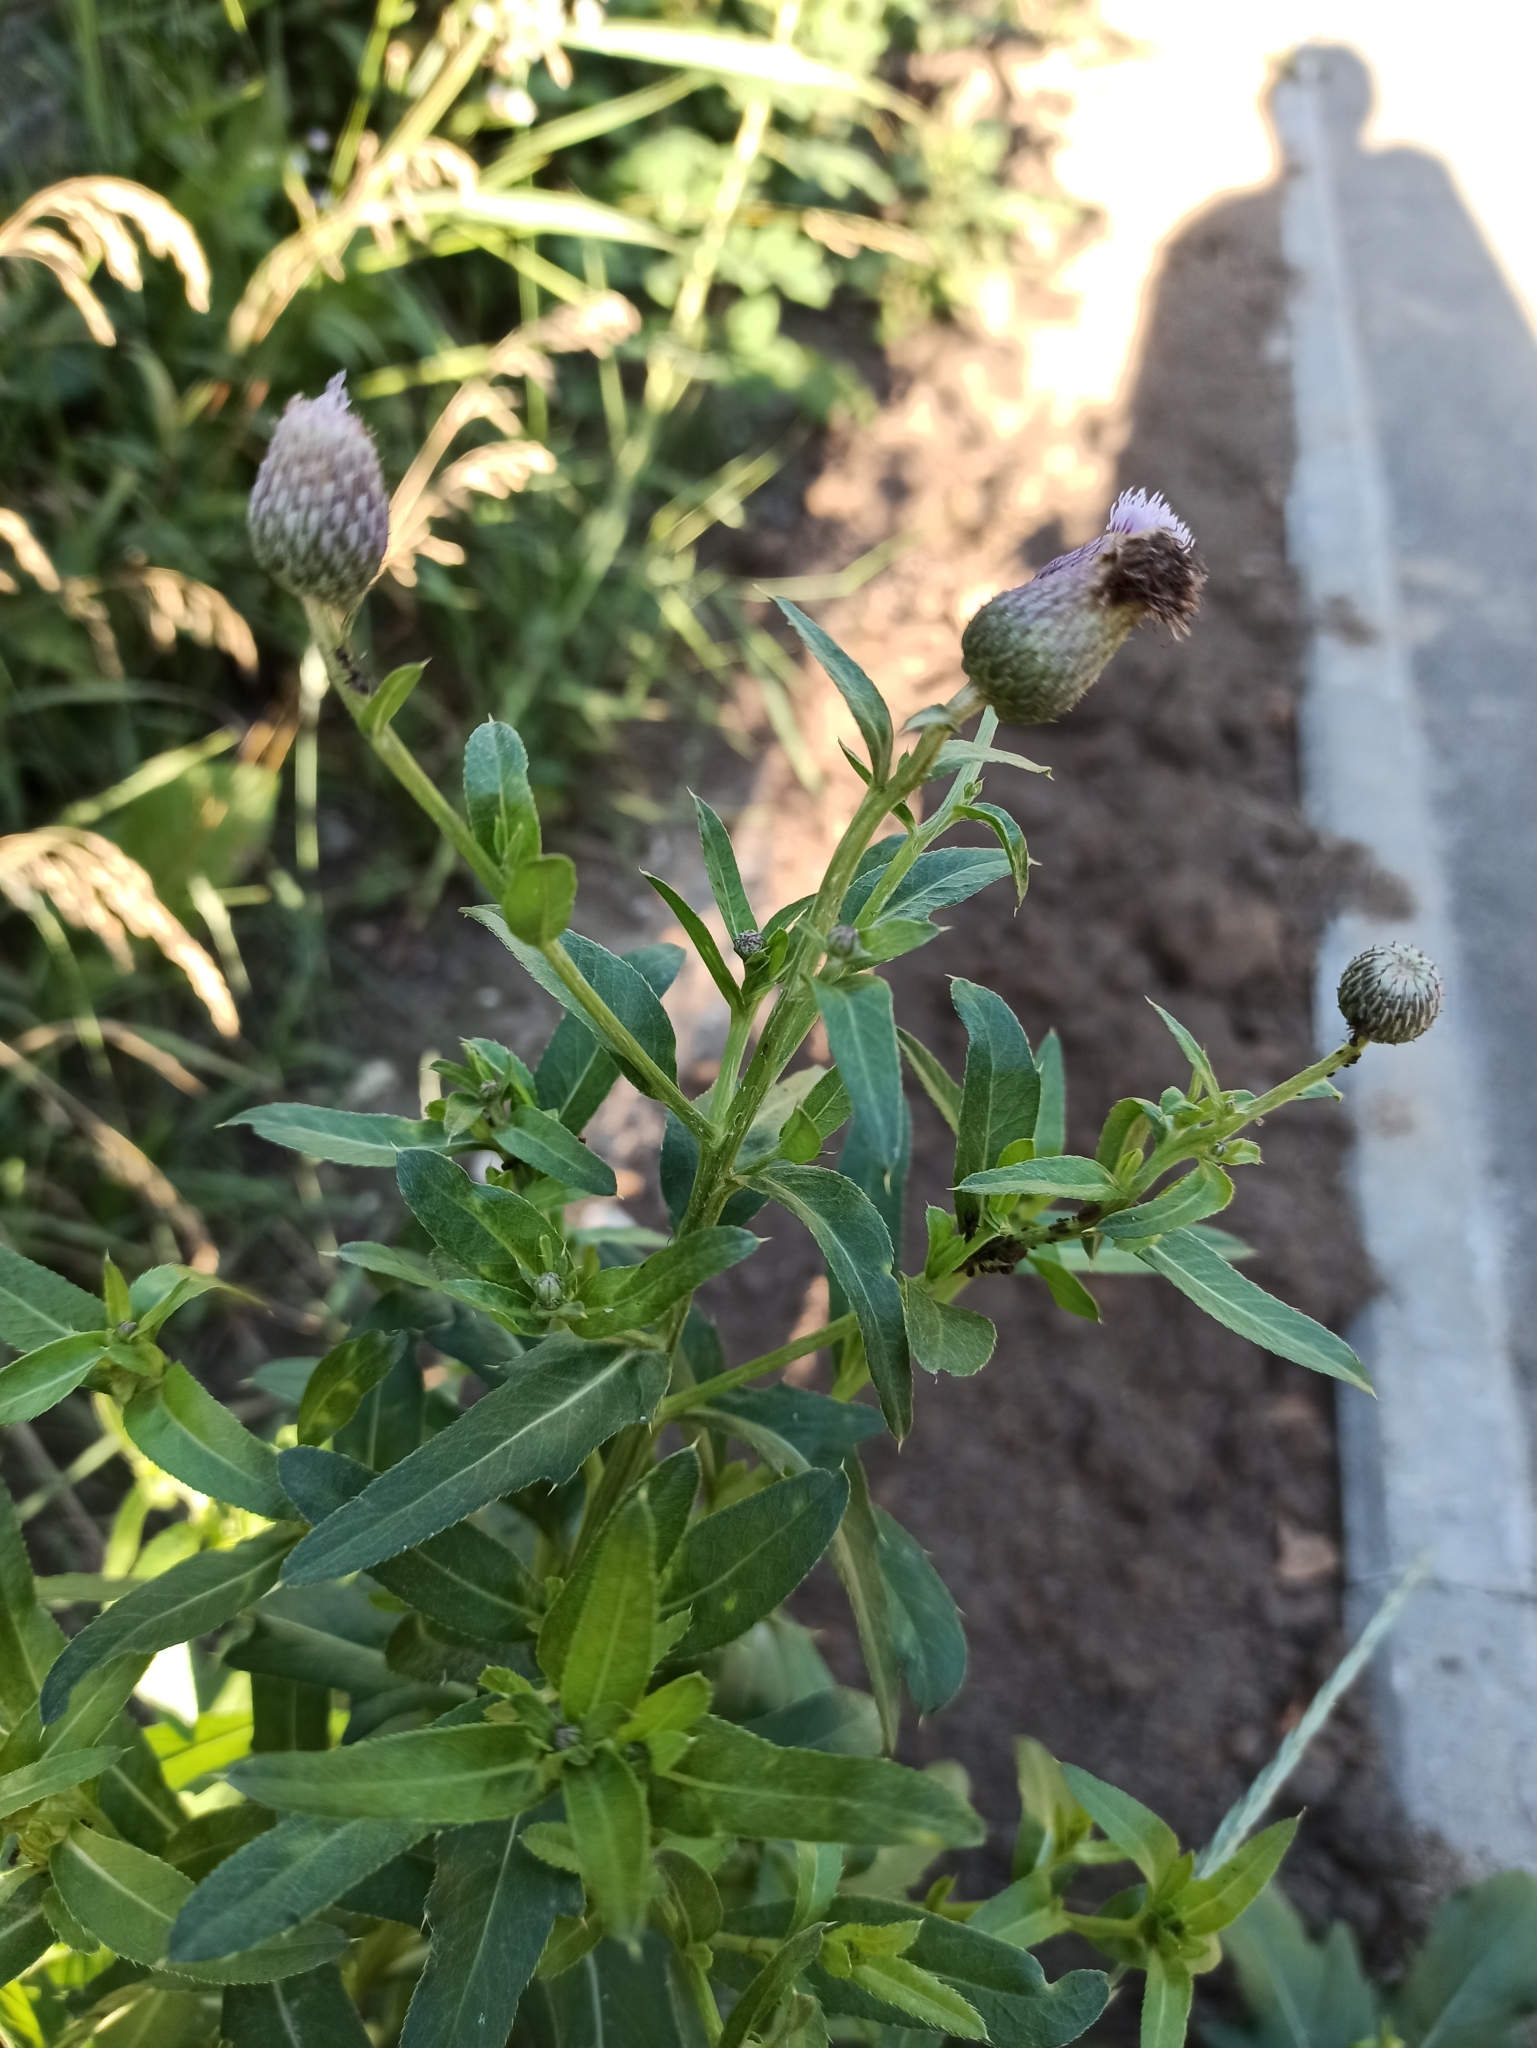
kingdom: Plantae
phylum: Tracheophyta
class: Magnoliopsida
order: Asterales
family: Asteraceae
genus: Cirsium
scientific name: Cirsium arvense
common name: Creeping thistle
